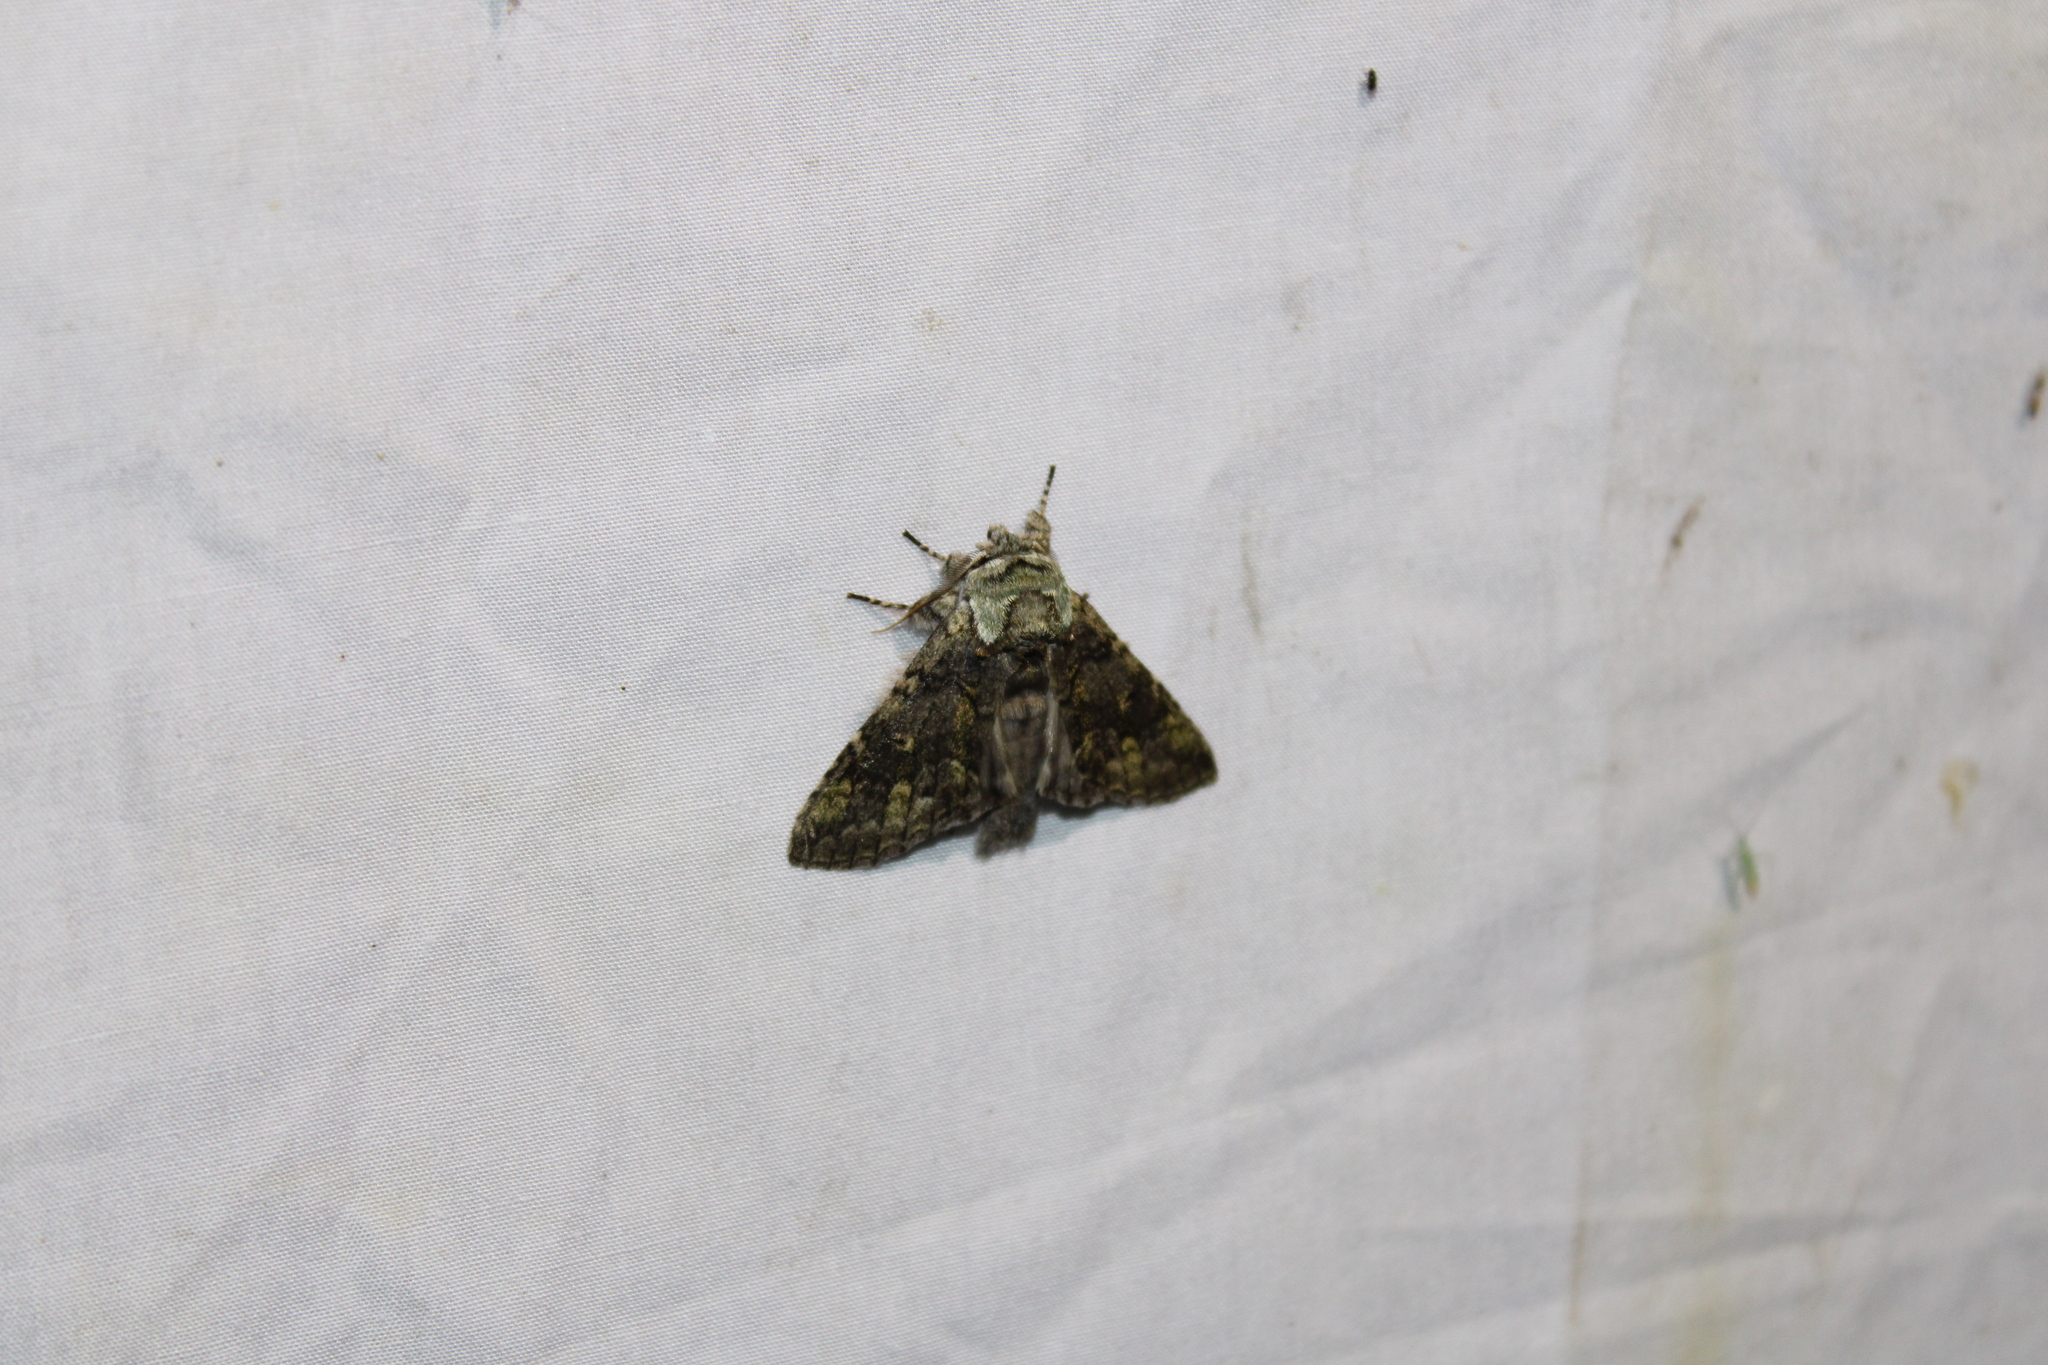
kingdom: Animalia
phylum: Arthropoda
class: Insecta
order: Lepidoptera
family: Notodontidae
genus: Macrurocampa
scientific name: Macrurocampa marthesia
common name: Mottled prominent
